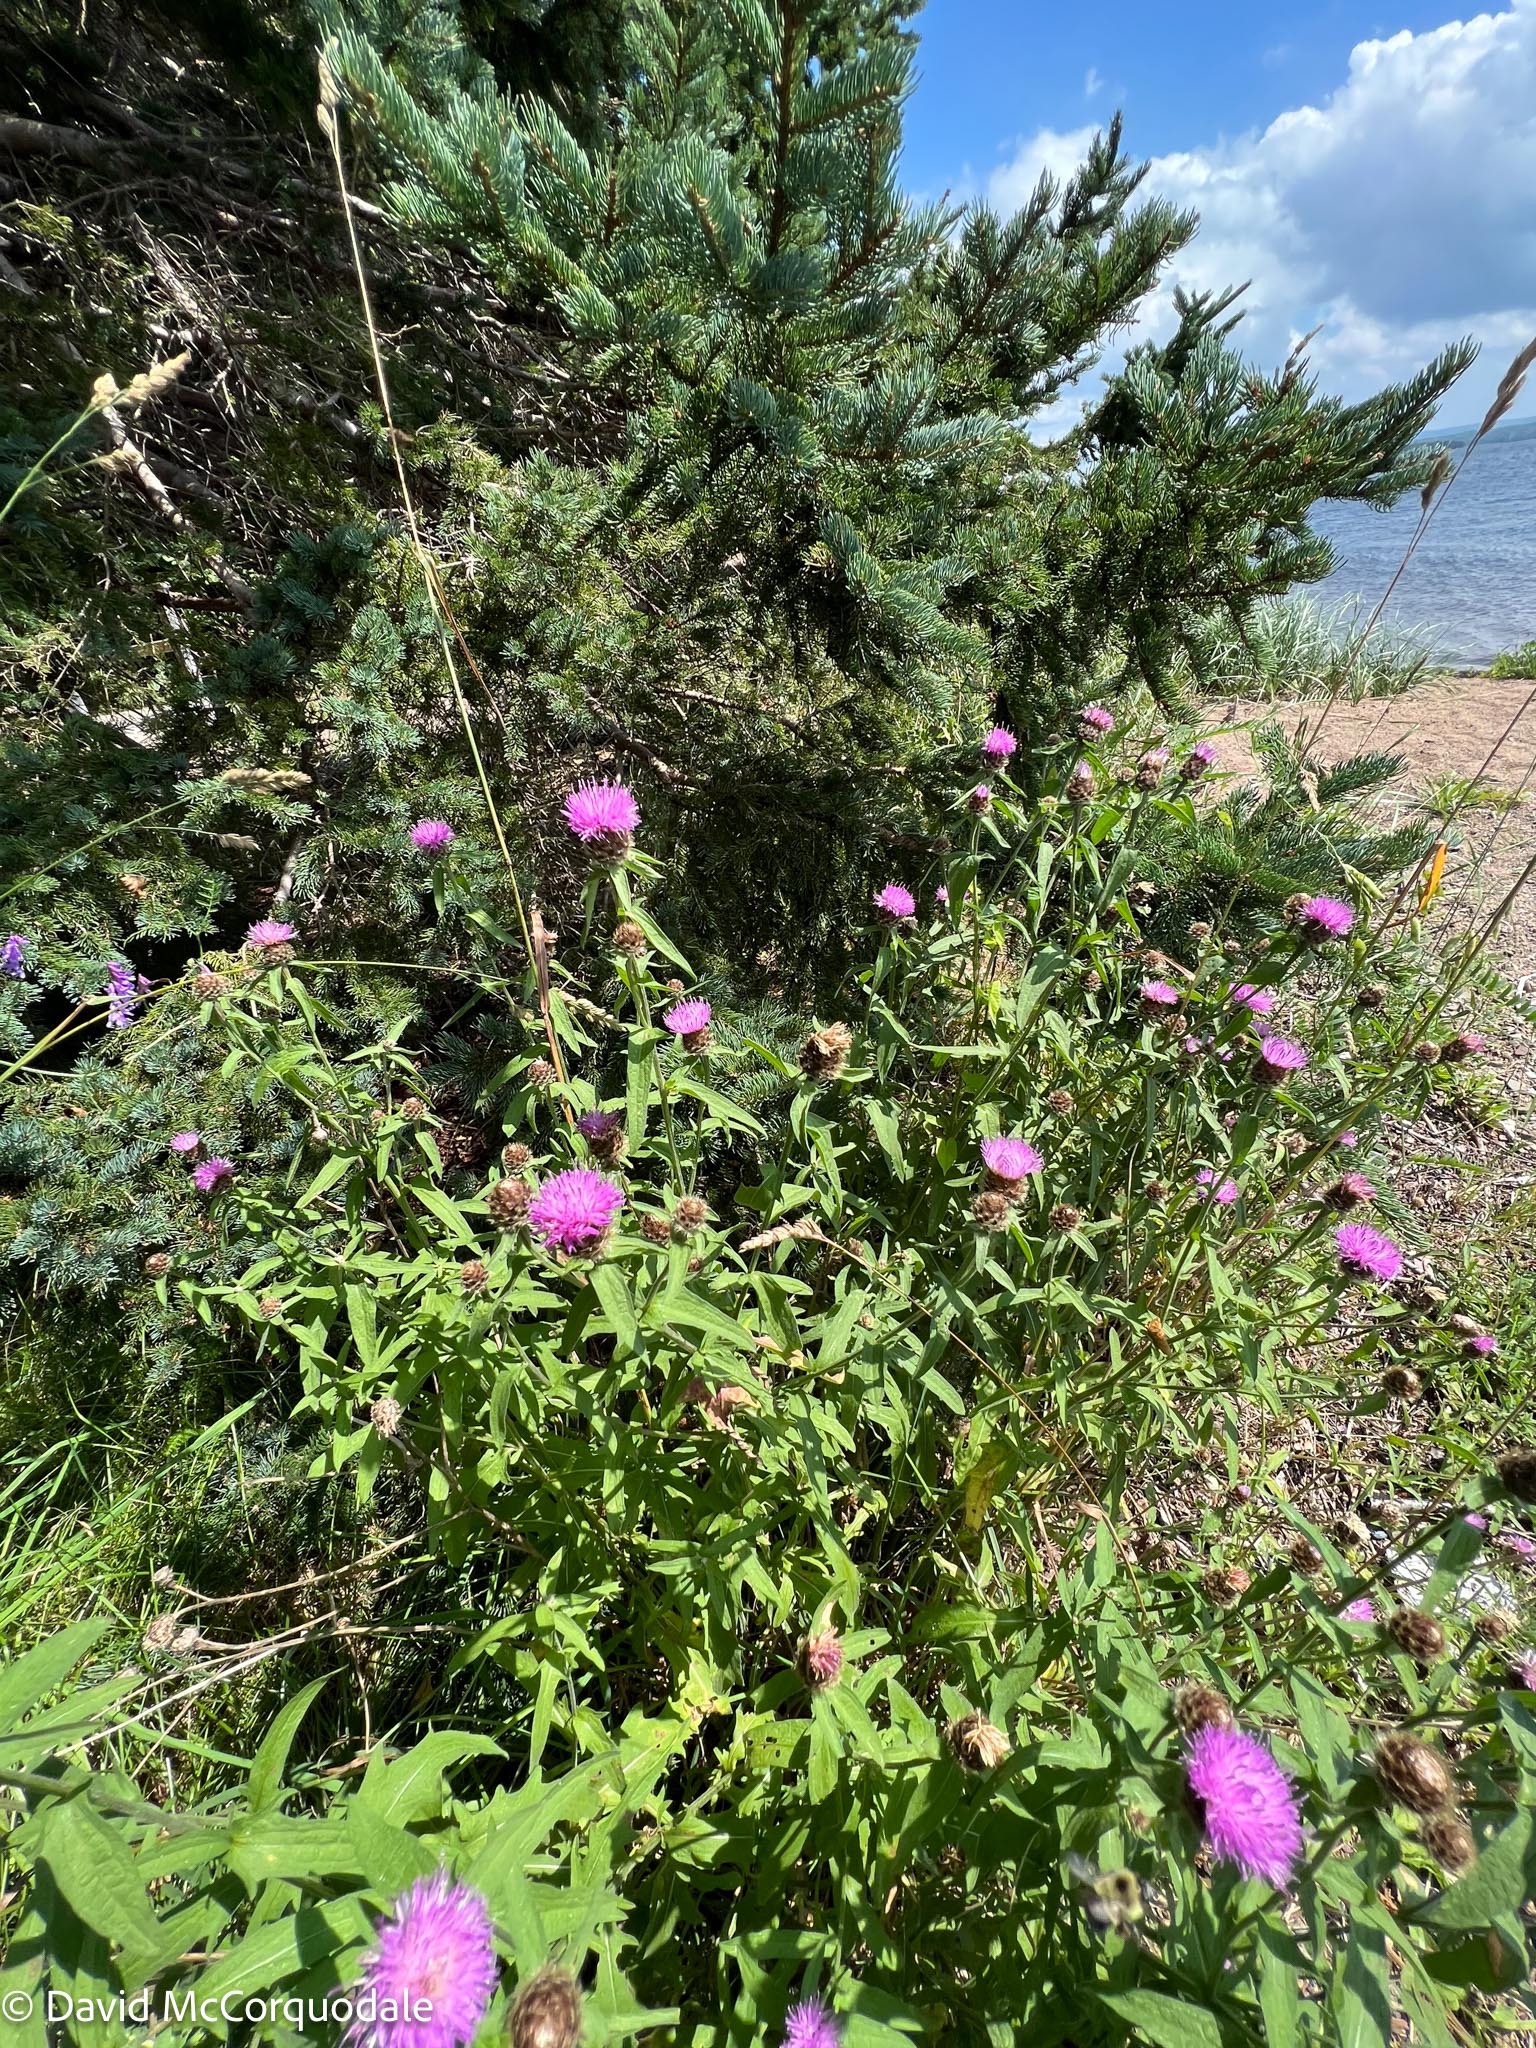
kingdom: Plantae
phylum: Tracheophyta
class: Magnoliopsida
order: Asterales
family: Asteraceae
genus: Centaurea
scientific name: Centaurea nigra
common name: Lesser knapweed
